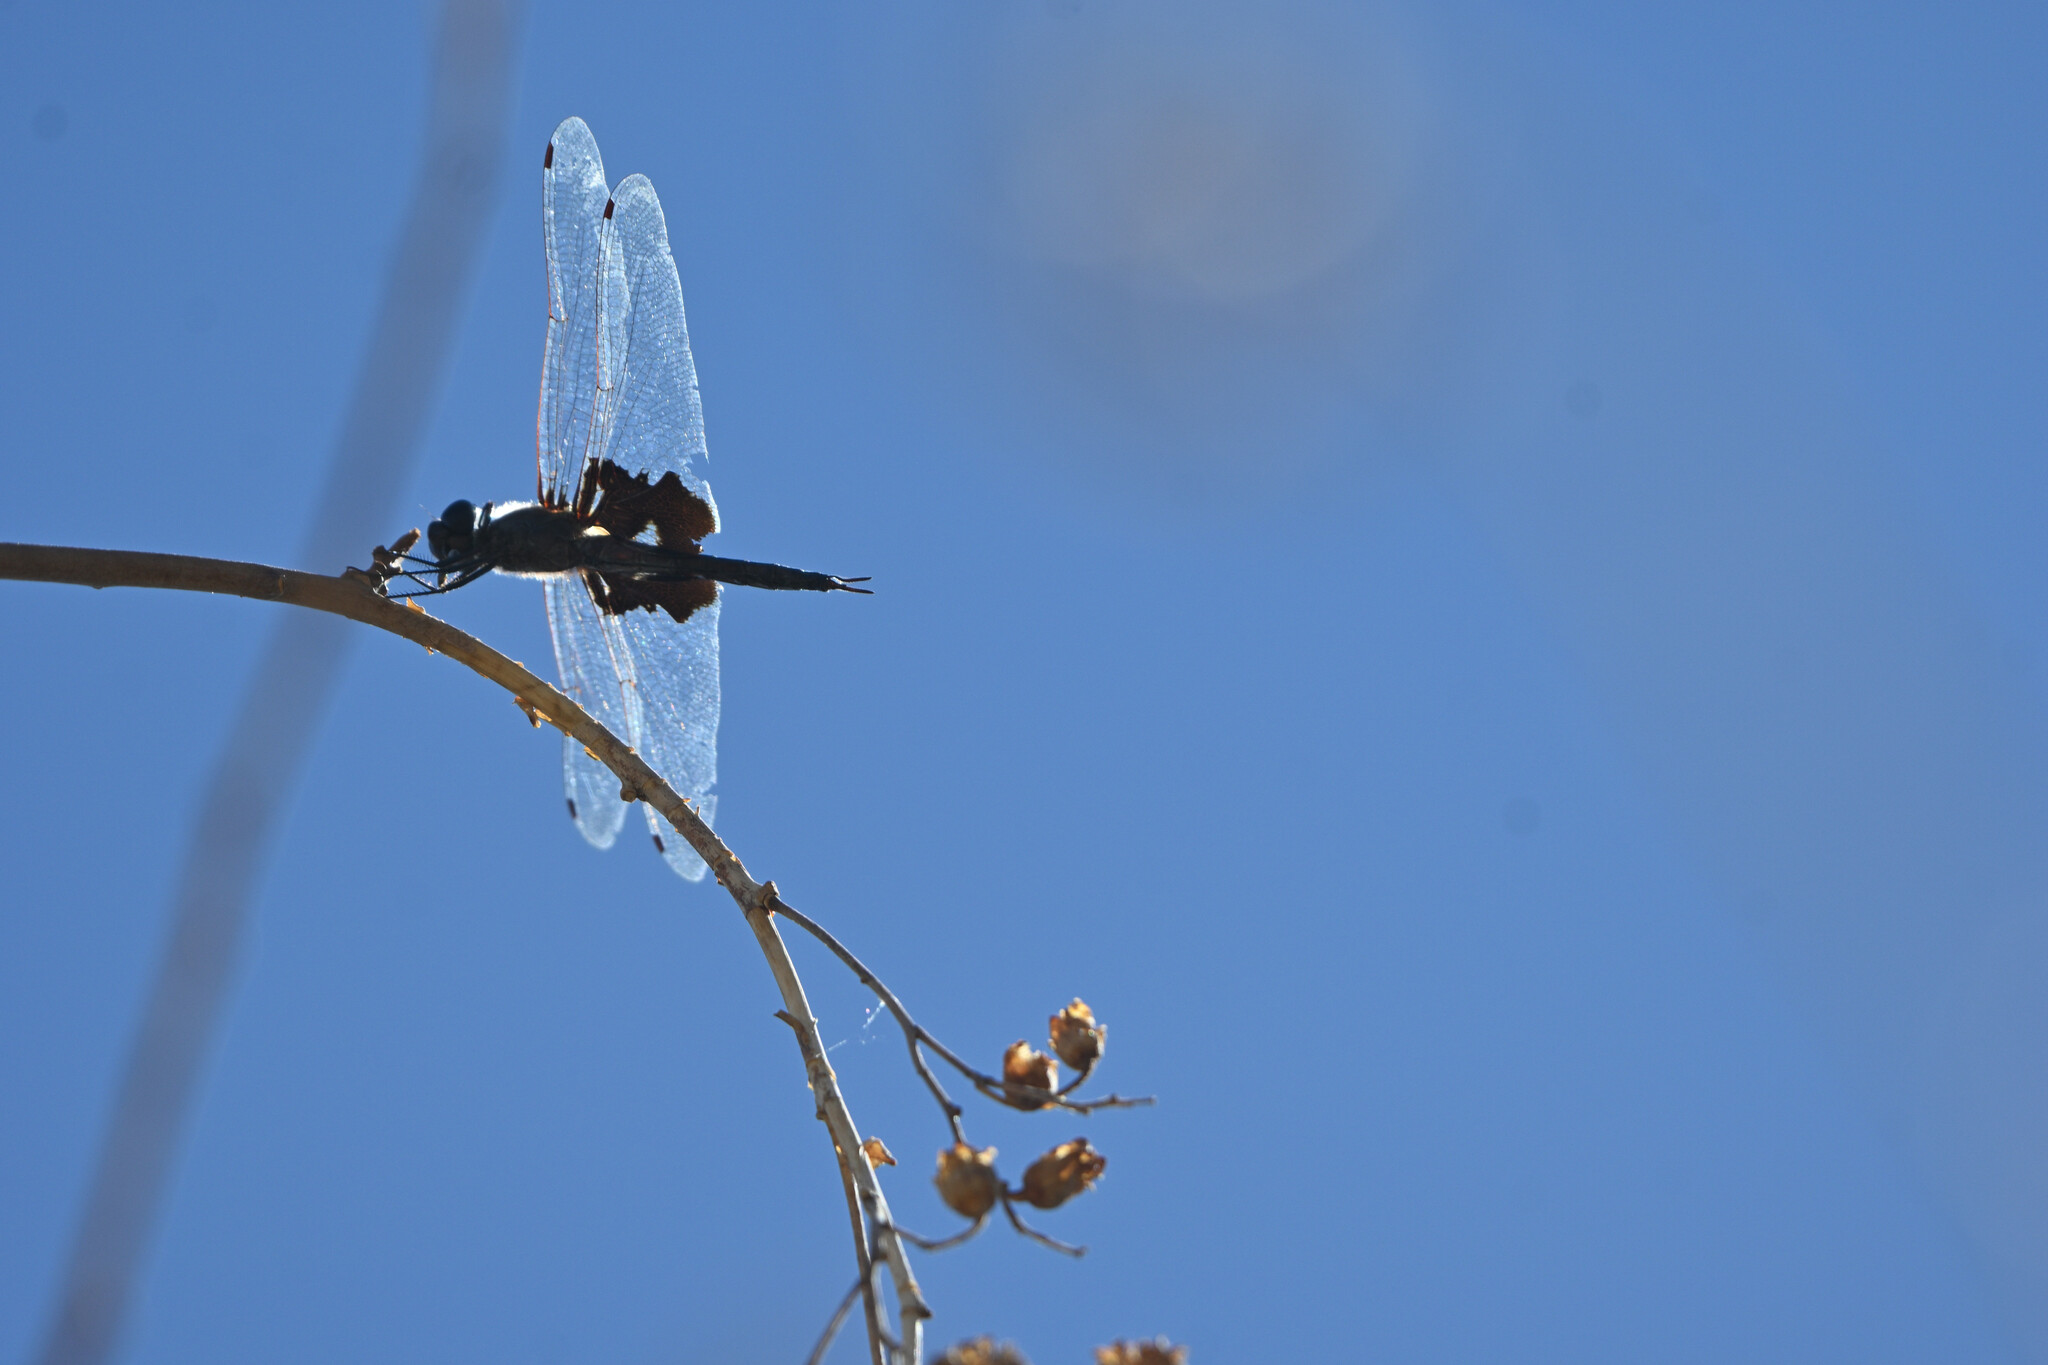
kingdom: Animalia
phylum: Arthropoda
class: Insecta
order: Odonata
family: Libellulidae
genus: Tramea
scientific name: Tramea lacerata
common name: Black saddlebags
